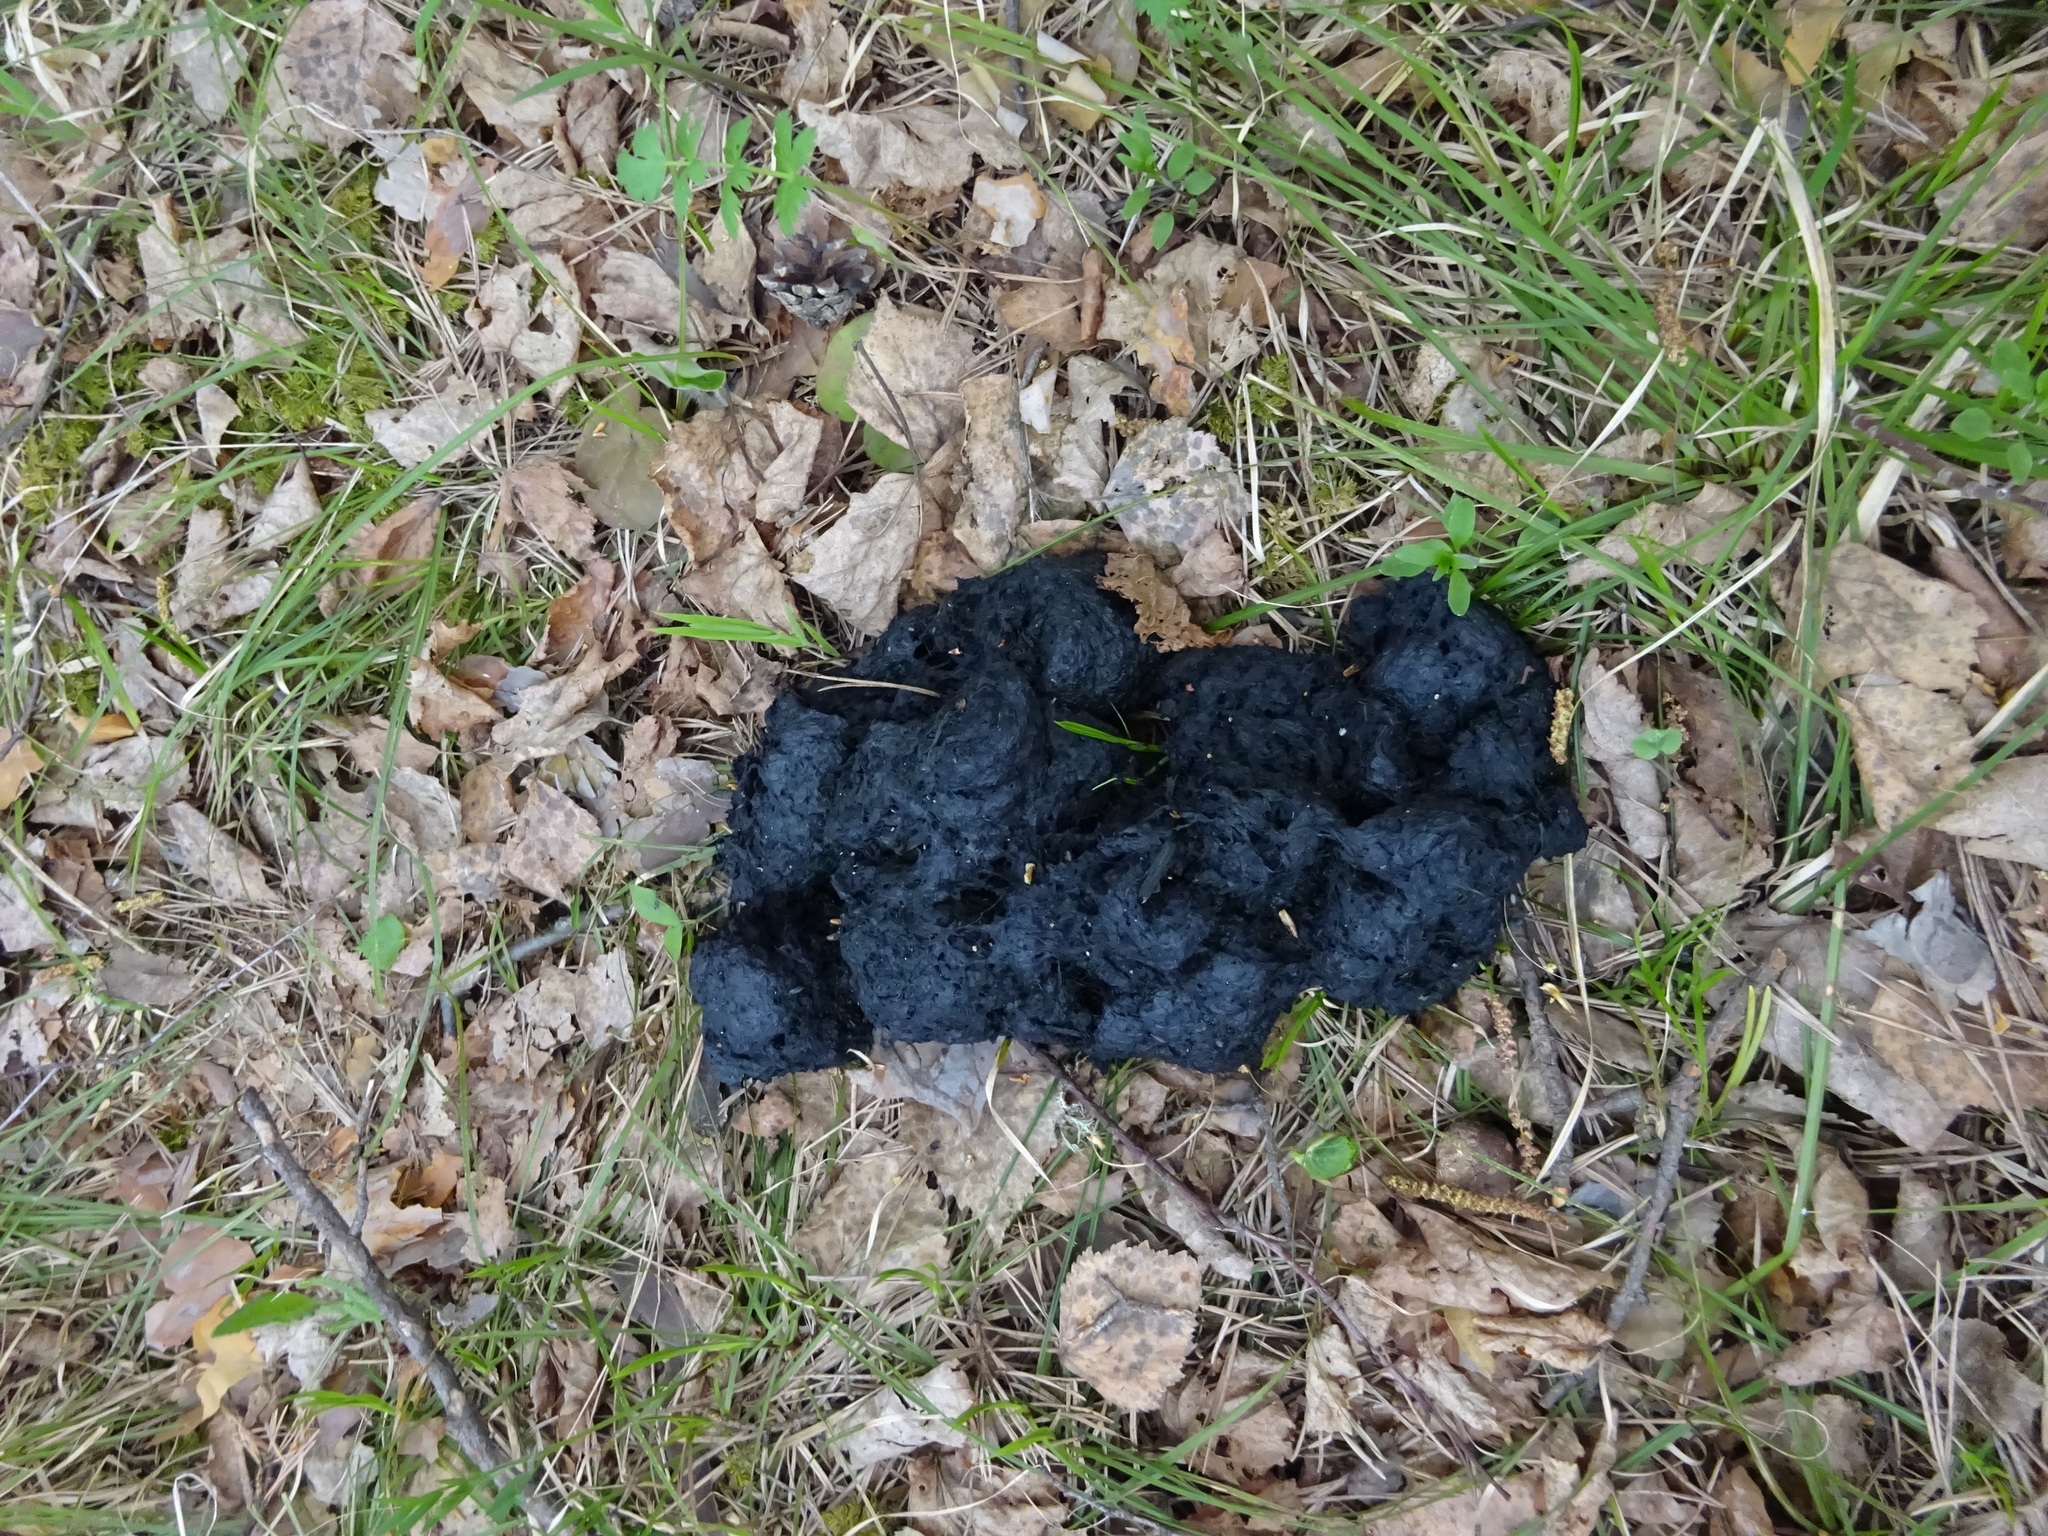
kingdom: Animalia
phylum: Chordata
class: Mammalia
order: Carnivora
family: Ursidae
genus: Ursus
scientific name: Ursus arctos
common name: Brown bear
